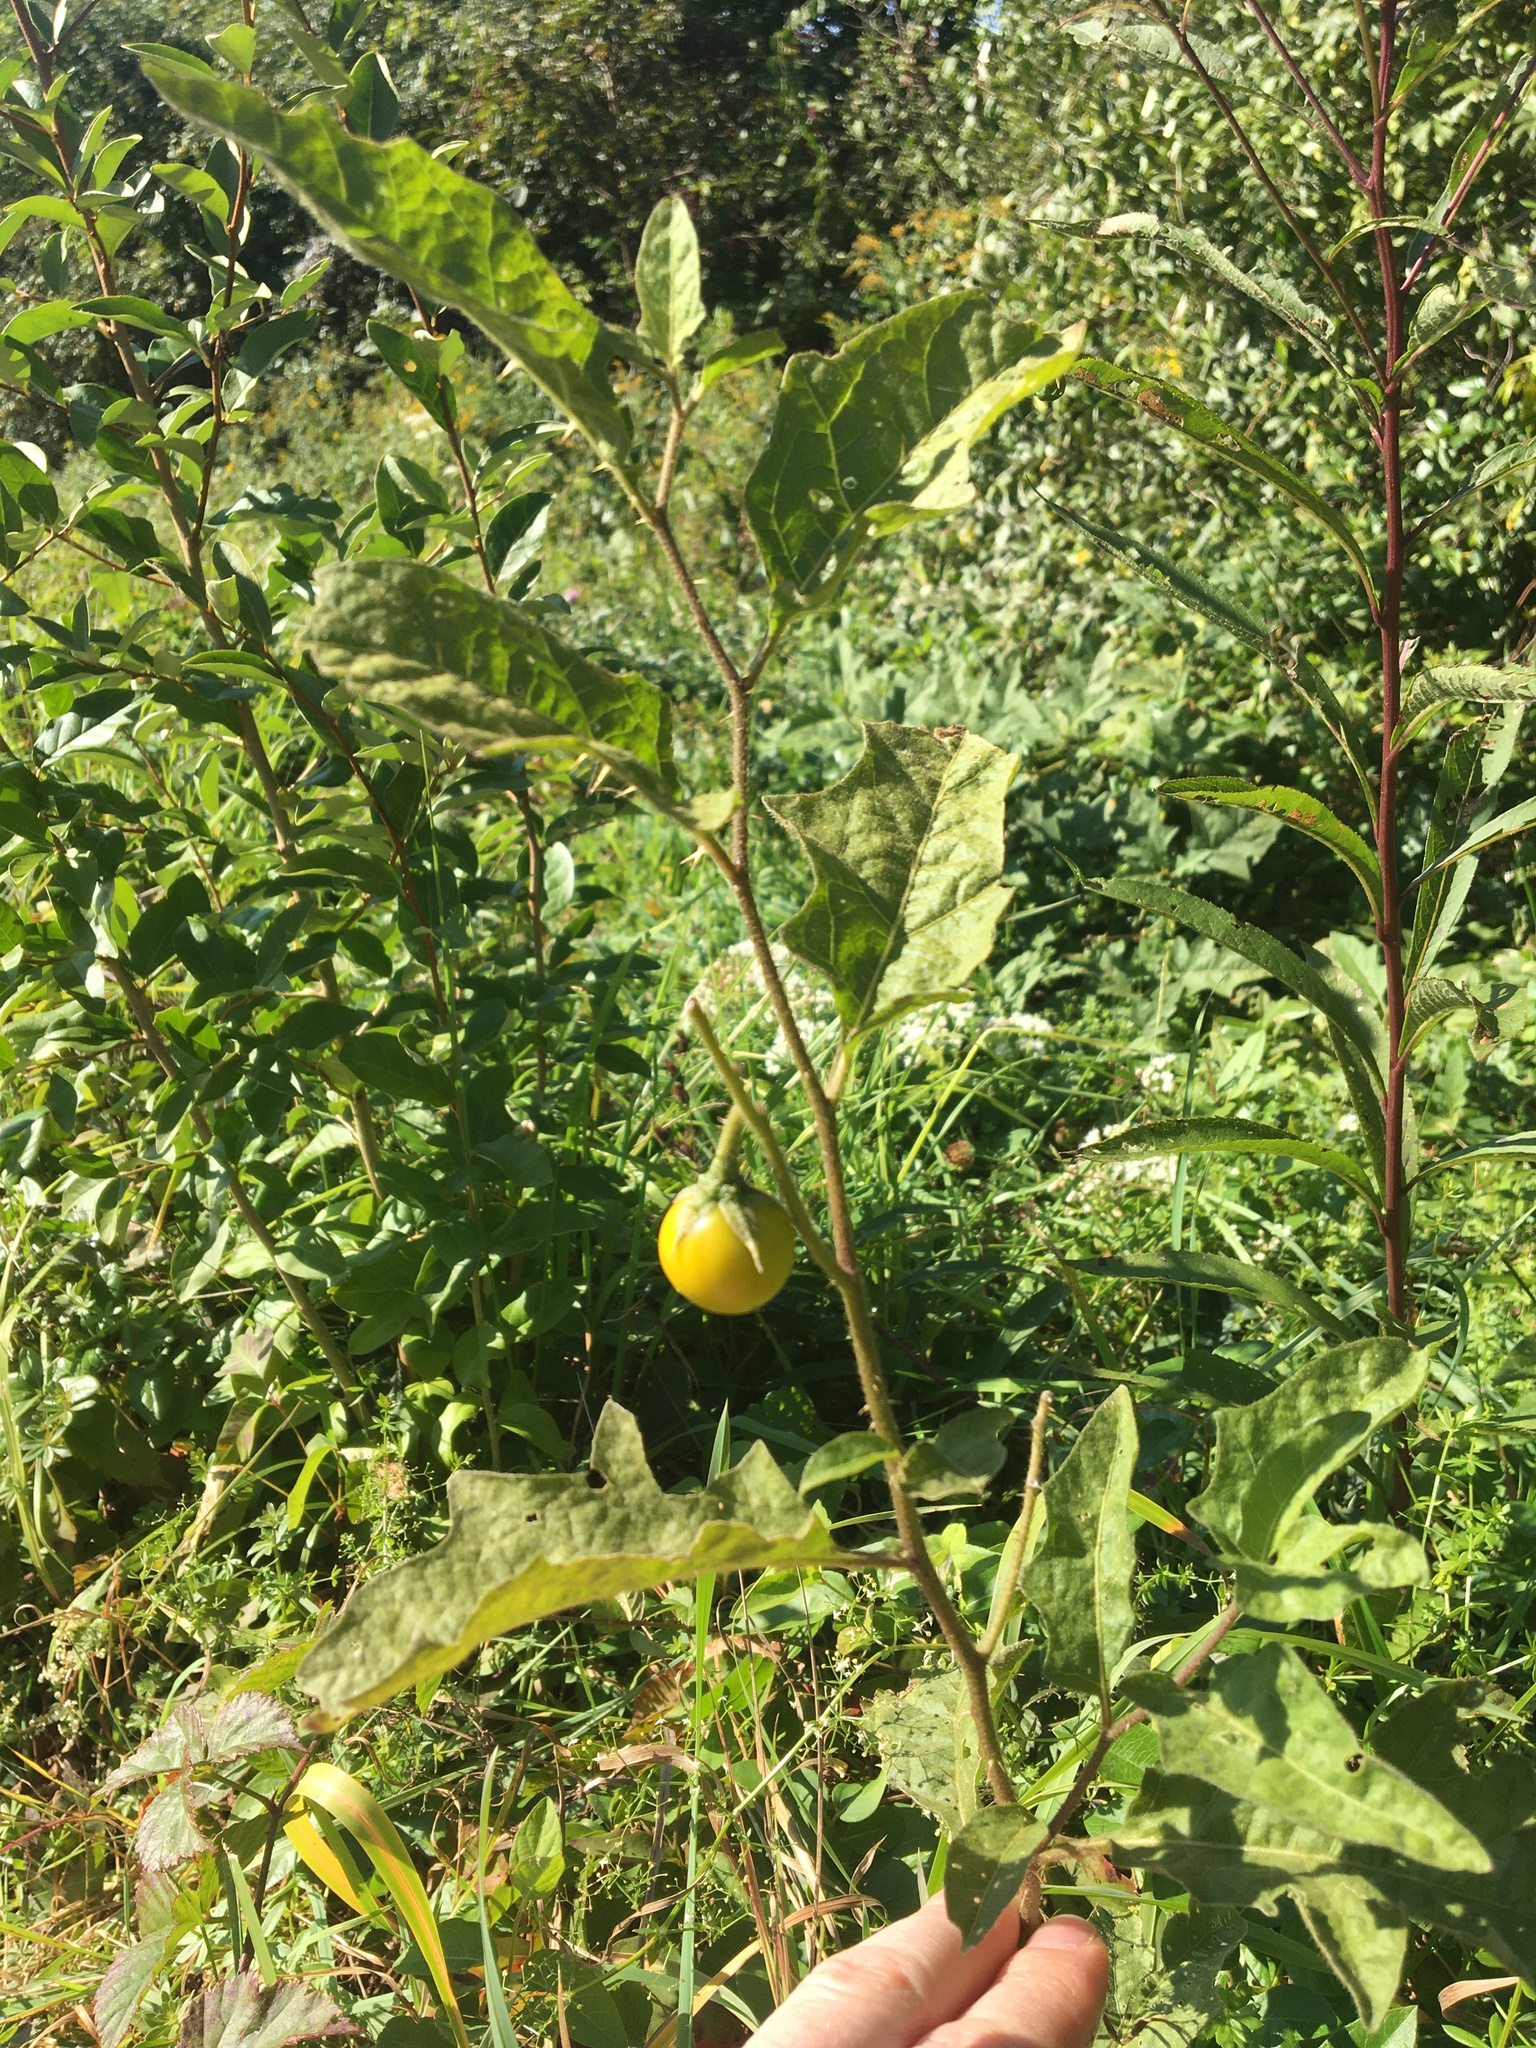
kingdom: Plantae
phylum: Tracheophyta
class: Magnoliopsida
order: Solanales
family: Solanaceae
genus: Solanum
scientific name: Solanum carolinense
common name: Horse-nettle
